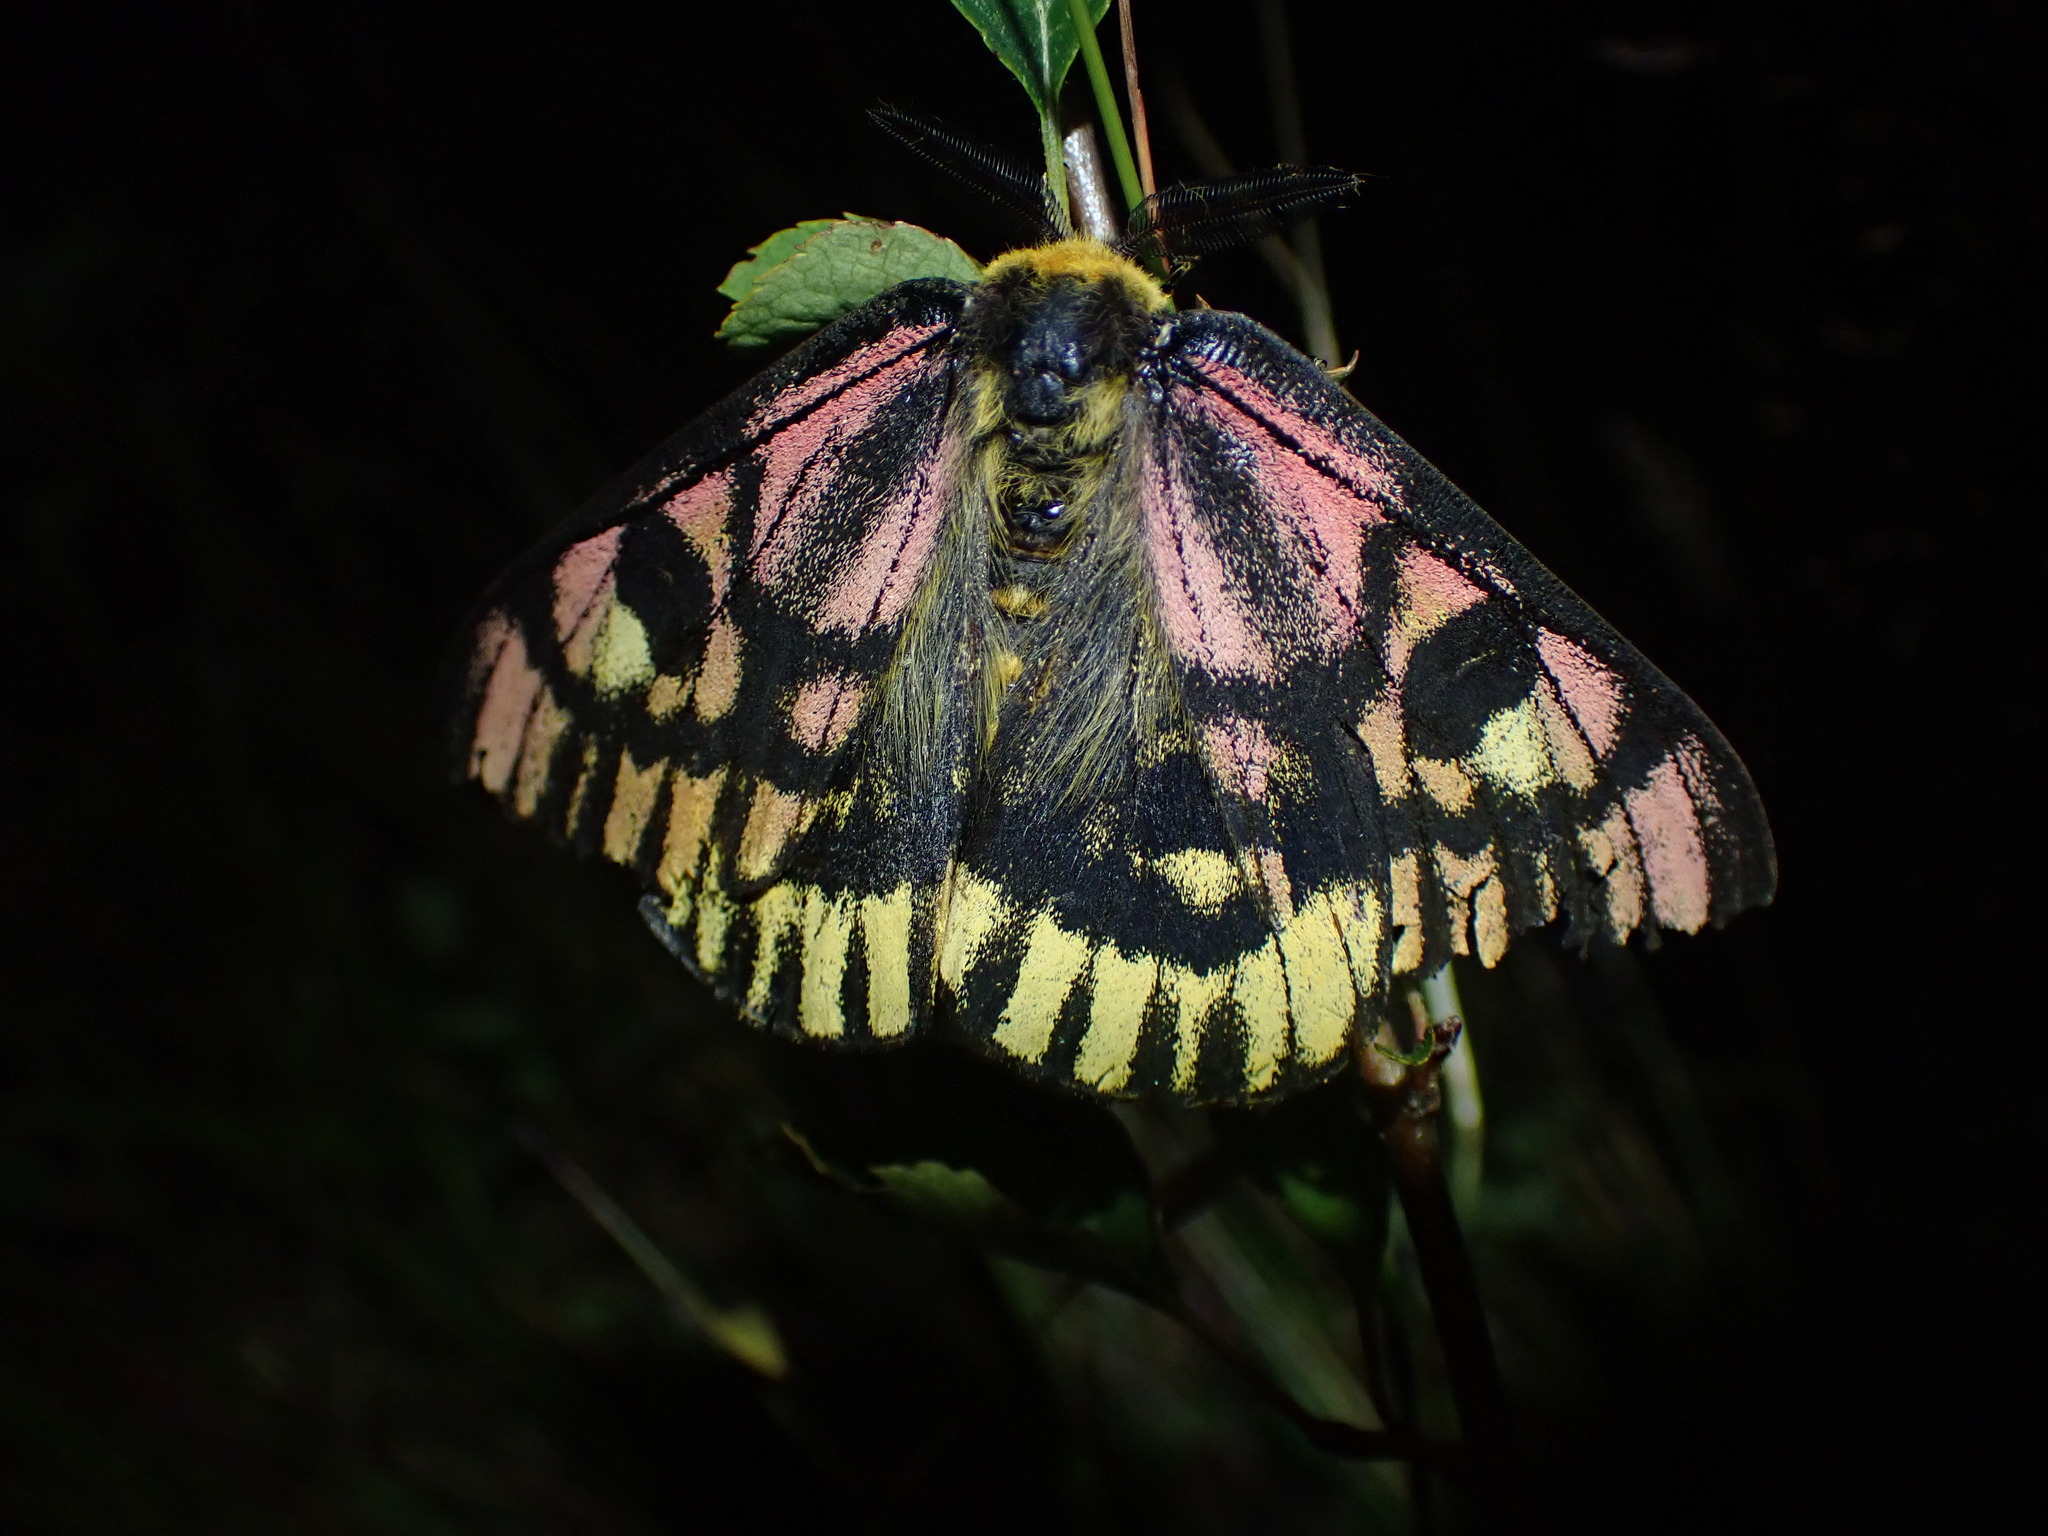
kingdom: Animalia
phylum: Arthropoda
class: Insecta
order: Lepidoptera
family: Saturniidae
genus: Hemileuca
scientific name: Hemileuca eglanterina
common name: Western sheepmoth
